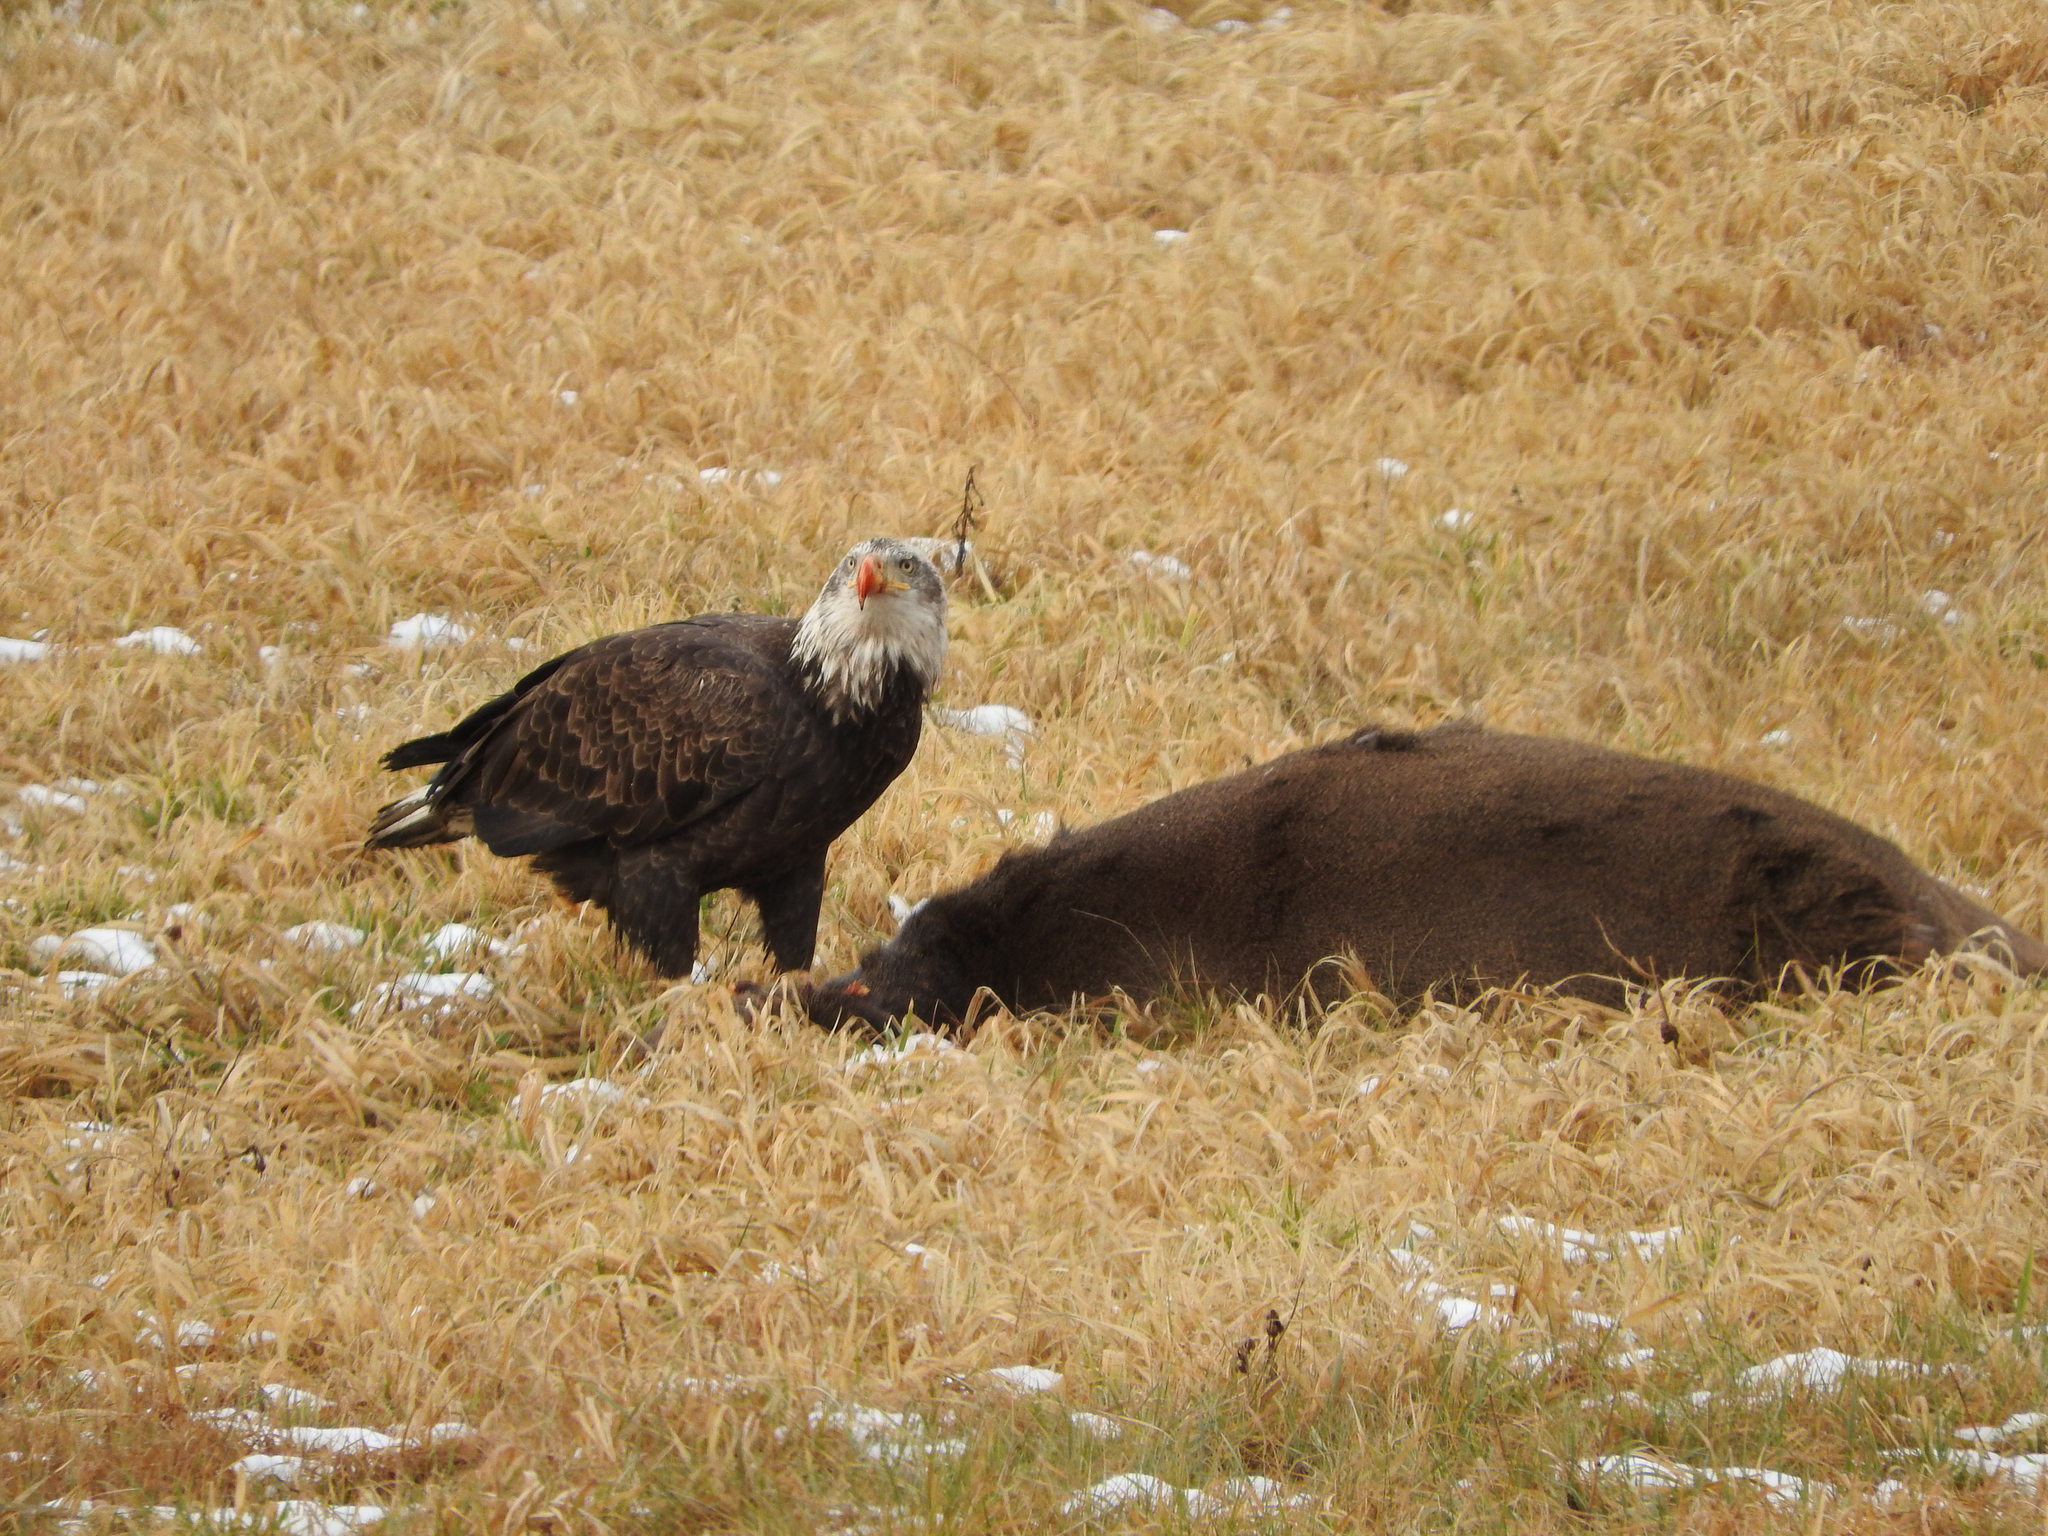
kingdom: Animalia
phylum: Chordata
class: Mammalia
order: Artiodactyla
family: Cervidae
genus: Odocoileus
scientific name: Odocoileus virginianus
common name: White-tailed deer
